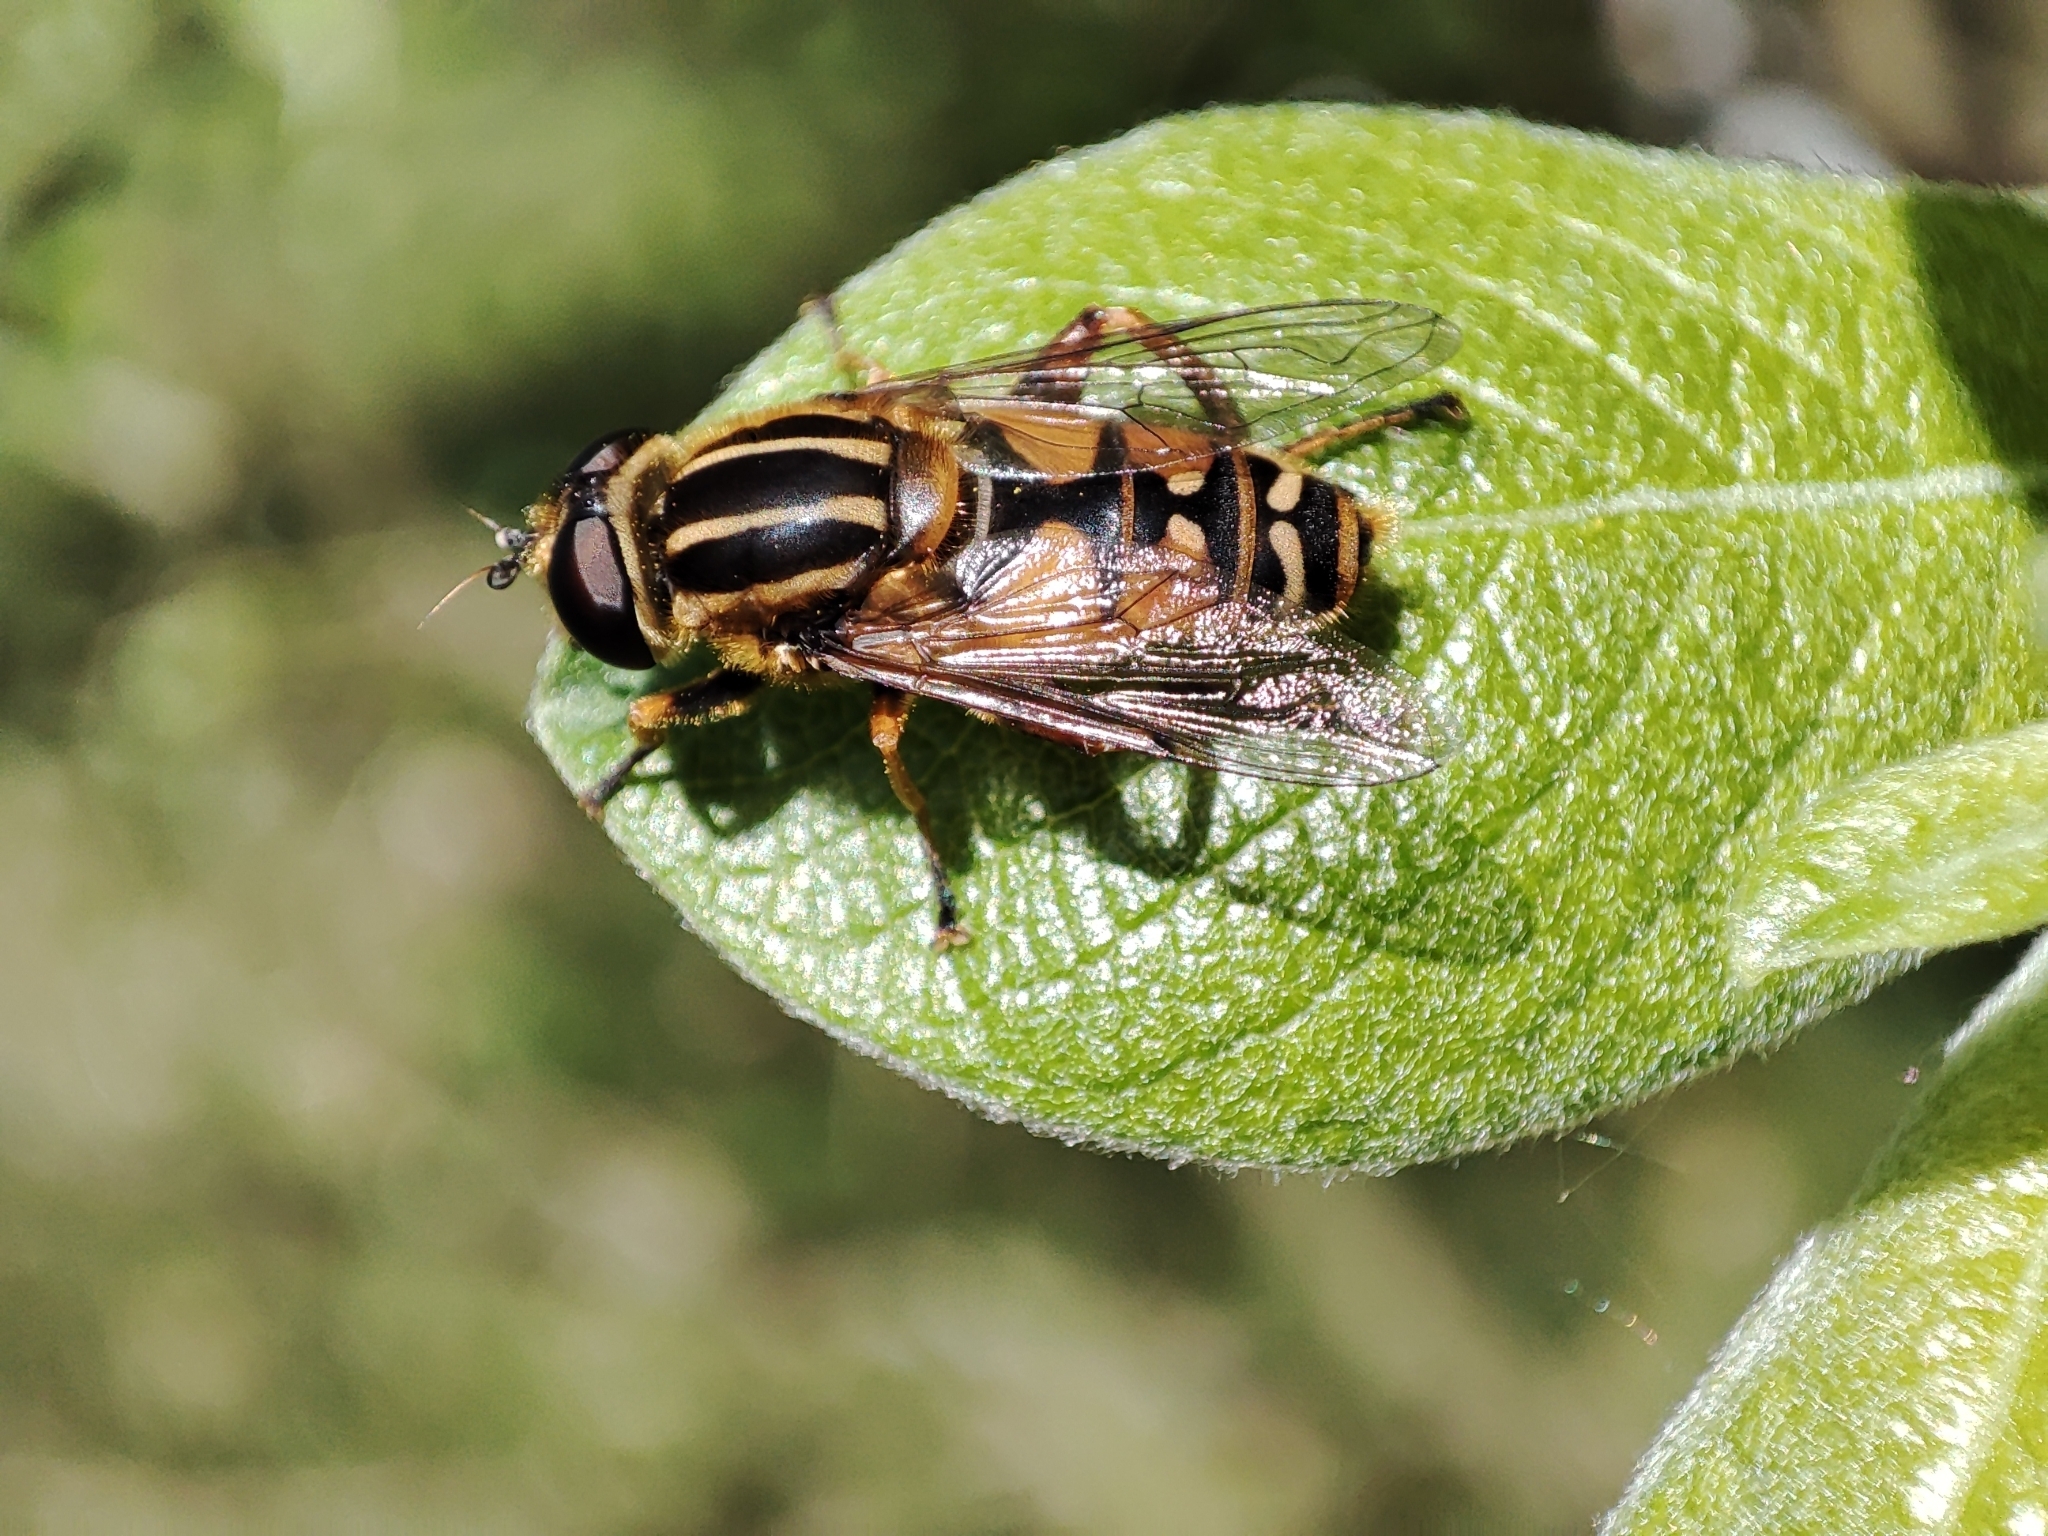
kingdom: Animalia
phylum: Arthropoda
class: Insecta
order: Diptera
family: Syrphidae
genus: Helophilus
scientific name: Helophilus pendulus
